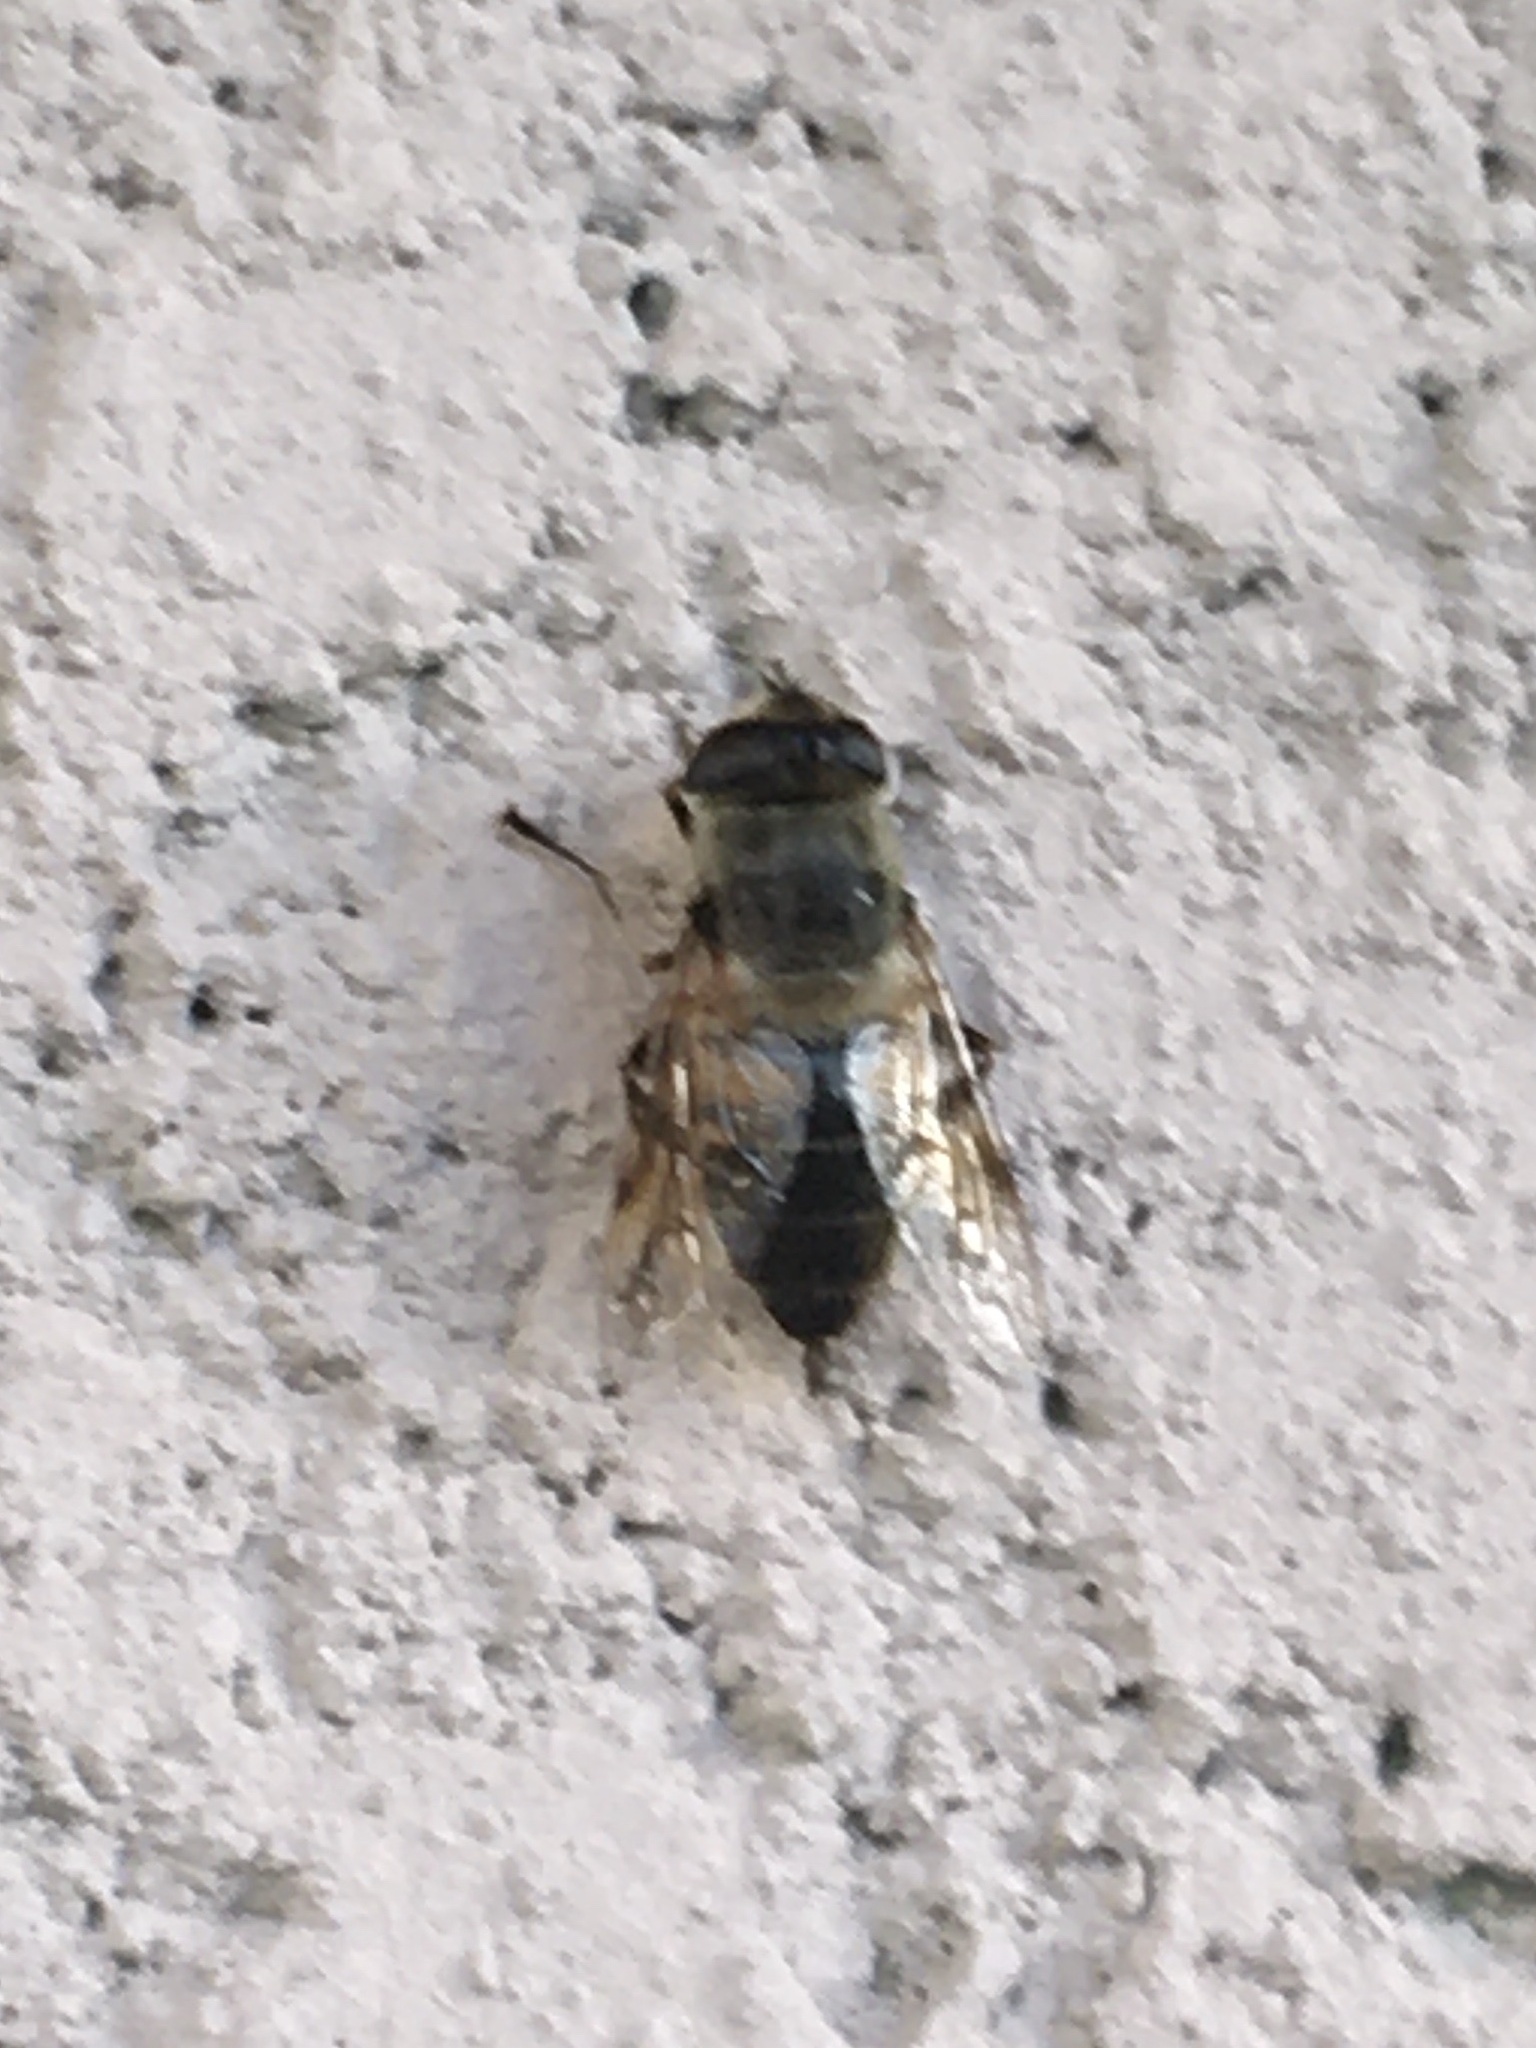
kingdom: Animalia
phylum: Arthropoda
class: Insecta
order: Diptera
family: Syrphidae
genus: Eristalis
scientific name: Eristalis tenax
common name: Drone fly
